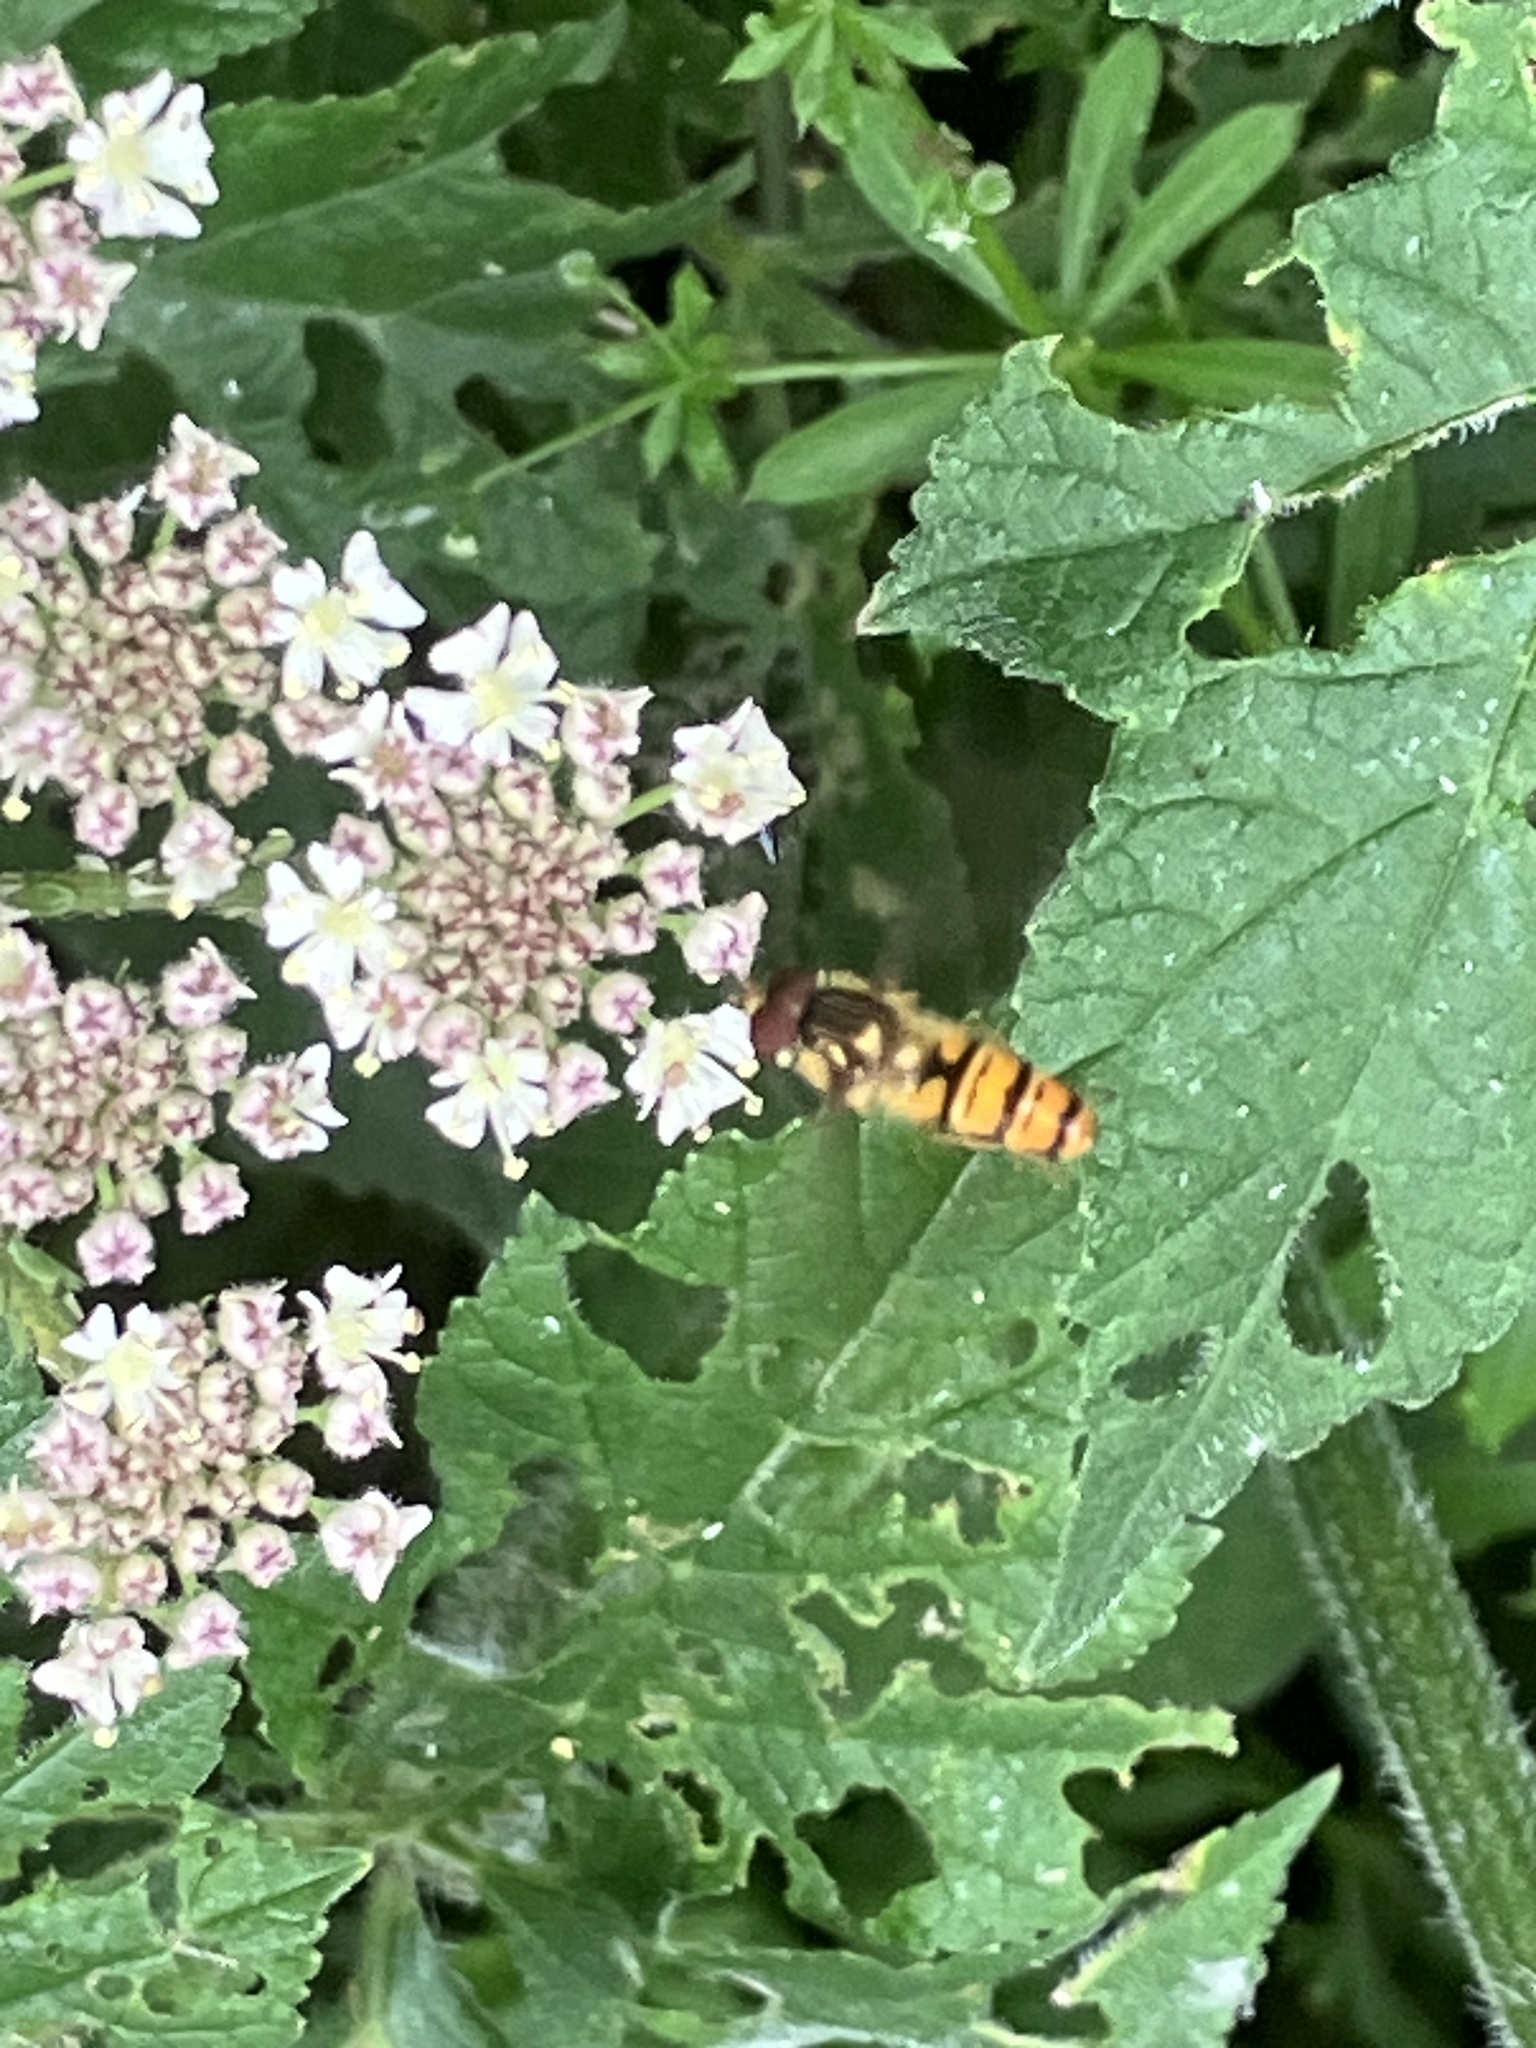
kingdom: Animalia
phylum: Arthropoda
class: Insecta
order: Diptera
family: Syrphidae
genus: Episyrphus
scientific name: Episyrphus balteatus
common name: Marmalade hoverfly
